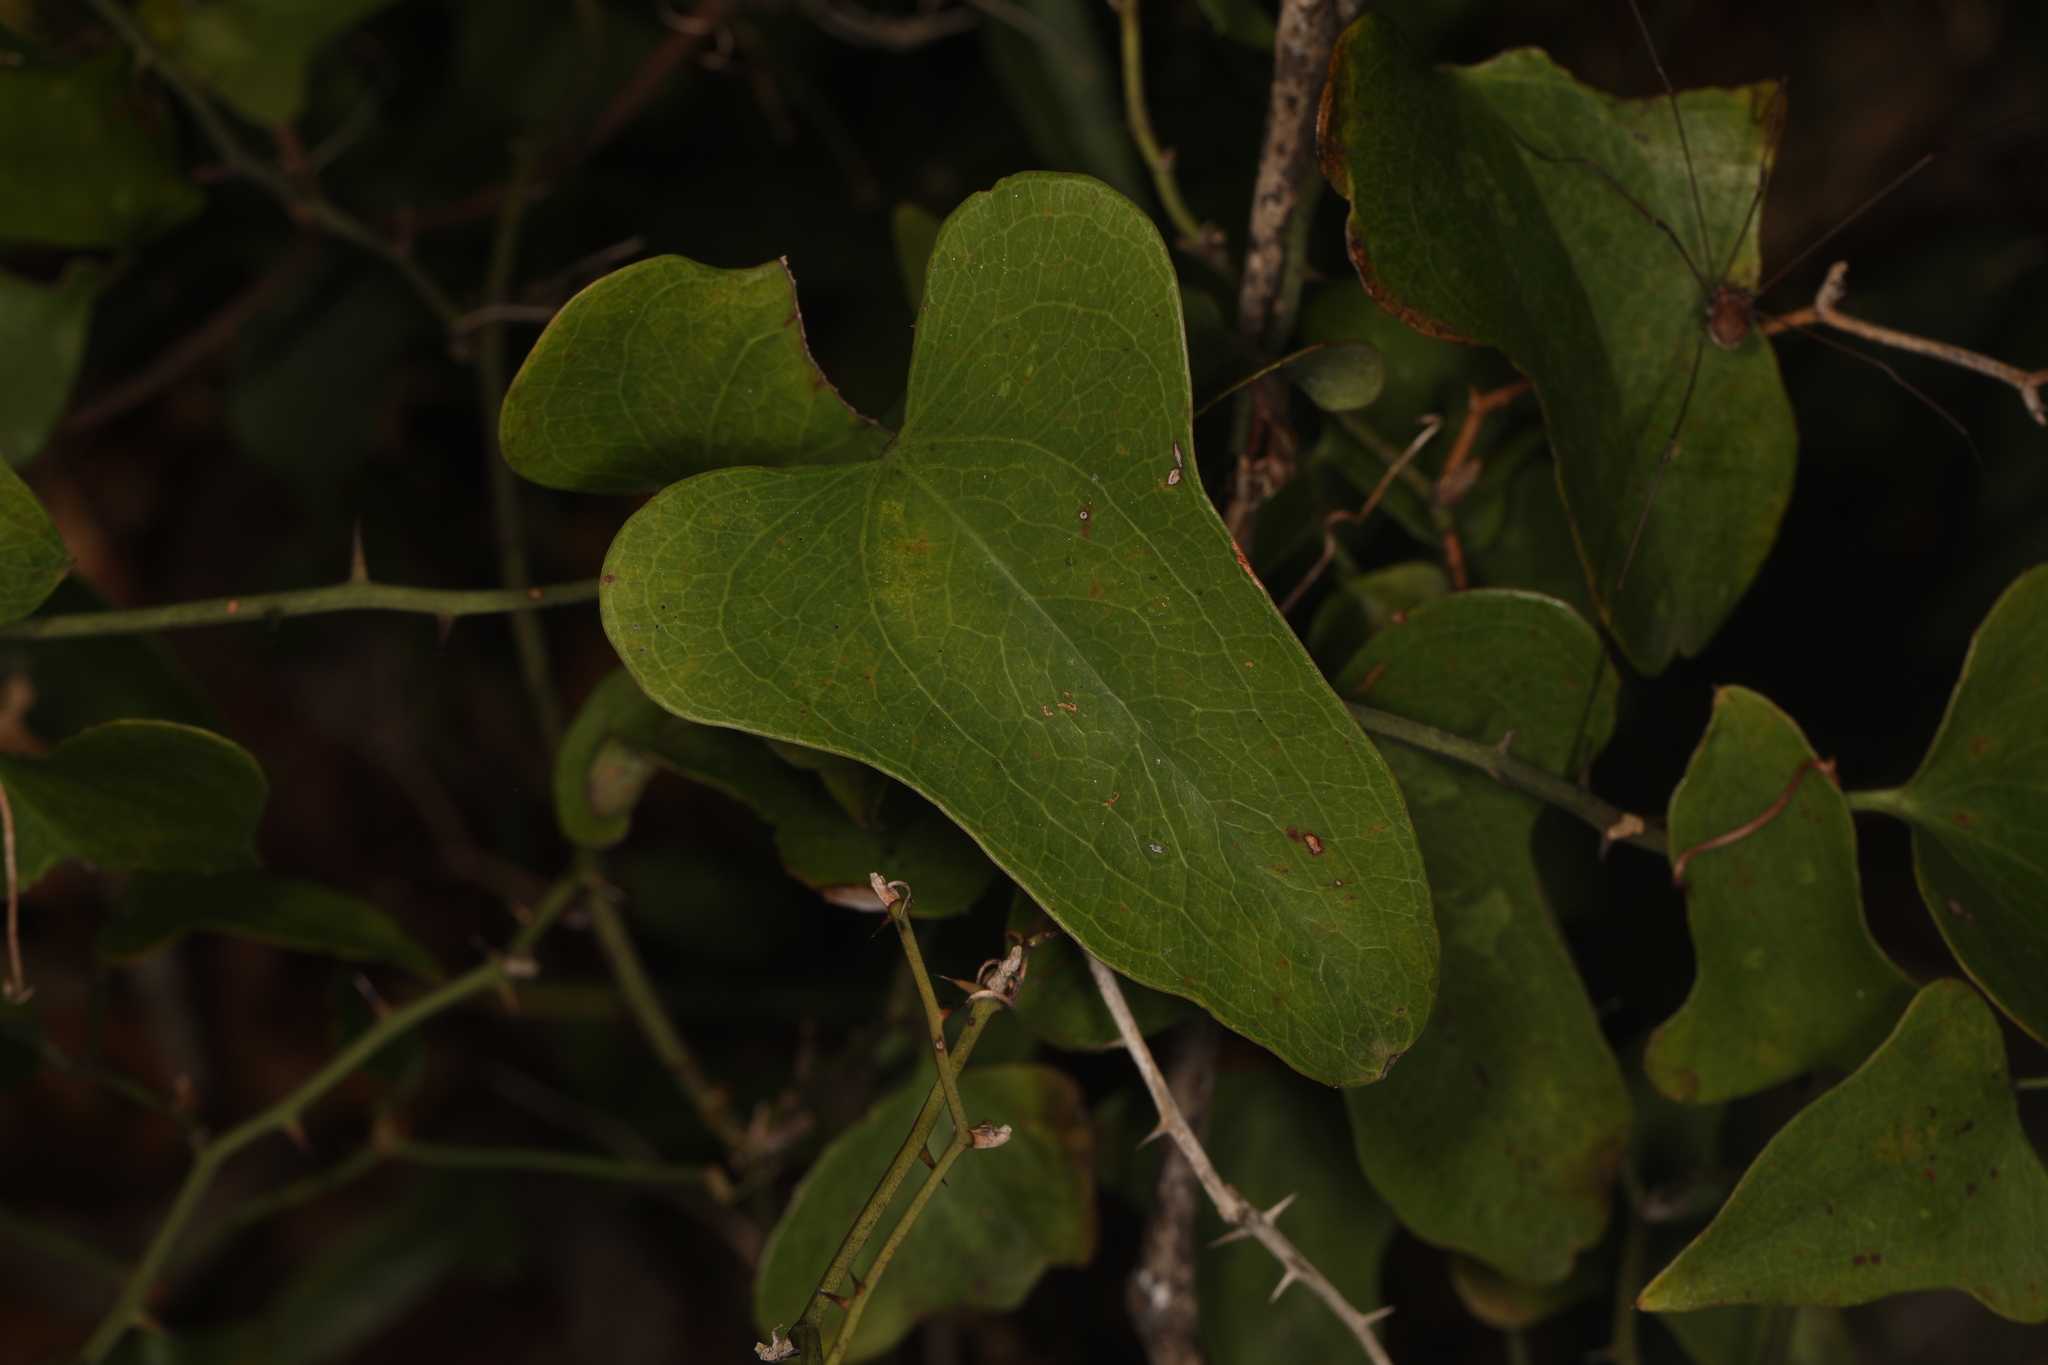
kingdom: Plantae
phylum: Tracheophyta
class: Liliopsida
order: Liliales
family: Smilacaceae
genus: Smilax
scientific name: Smilax bona-nox
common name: Catbrier
